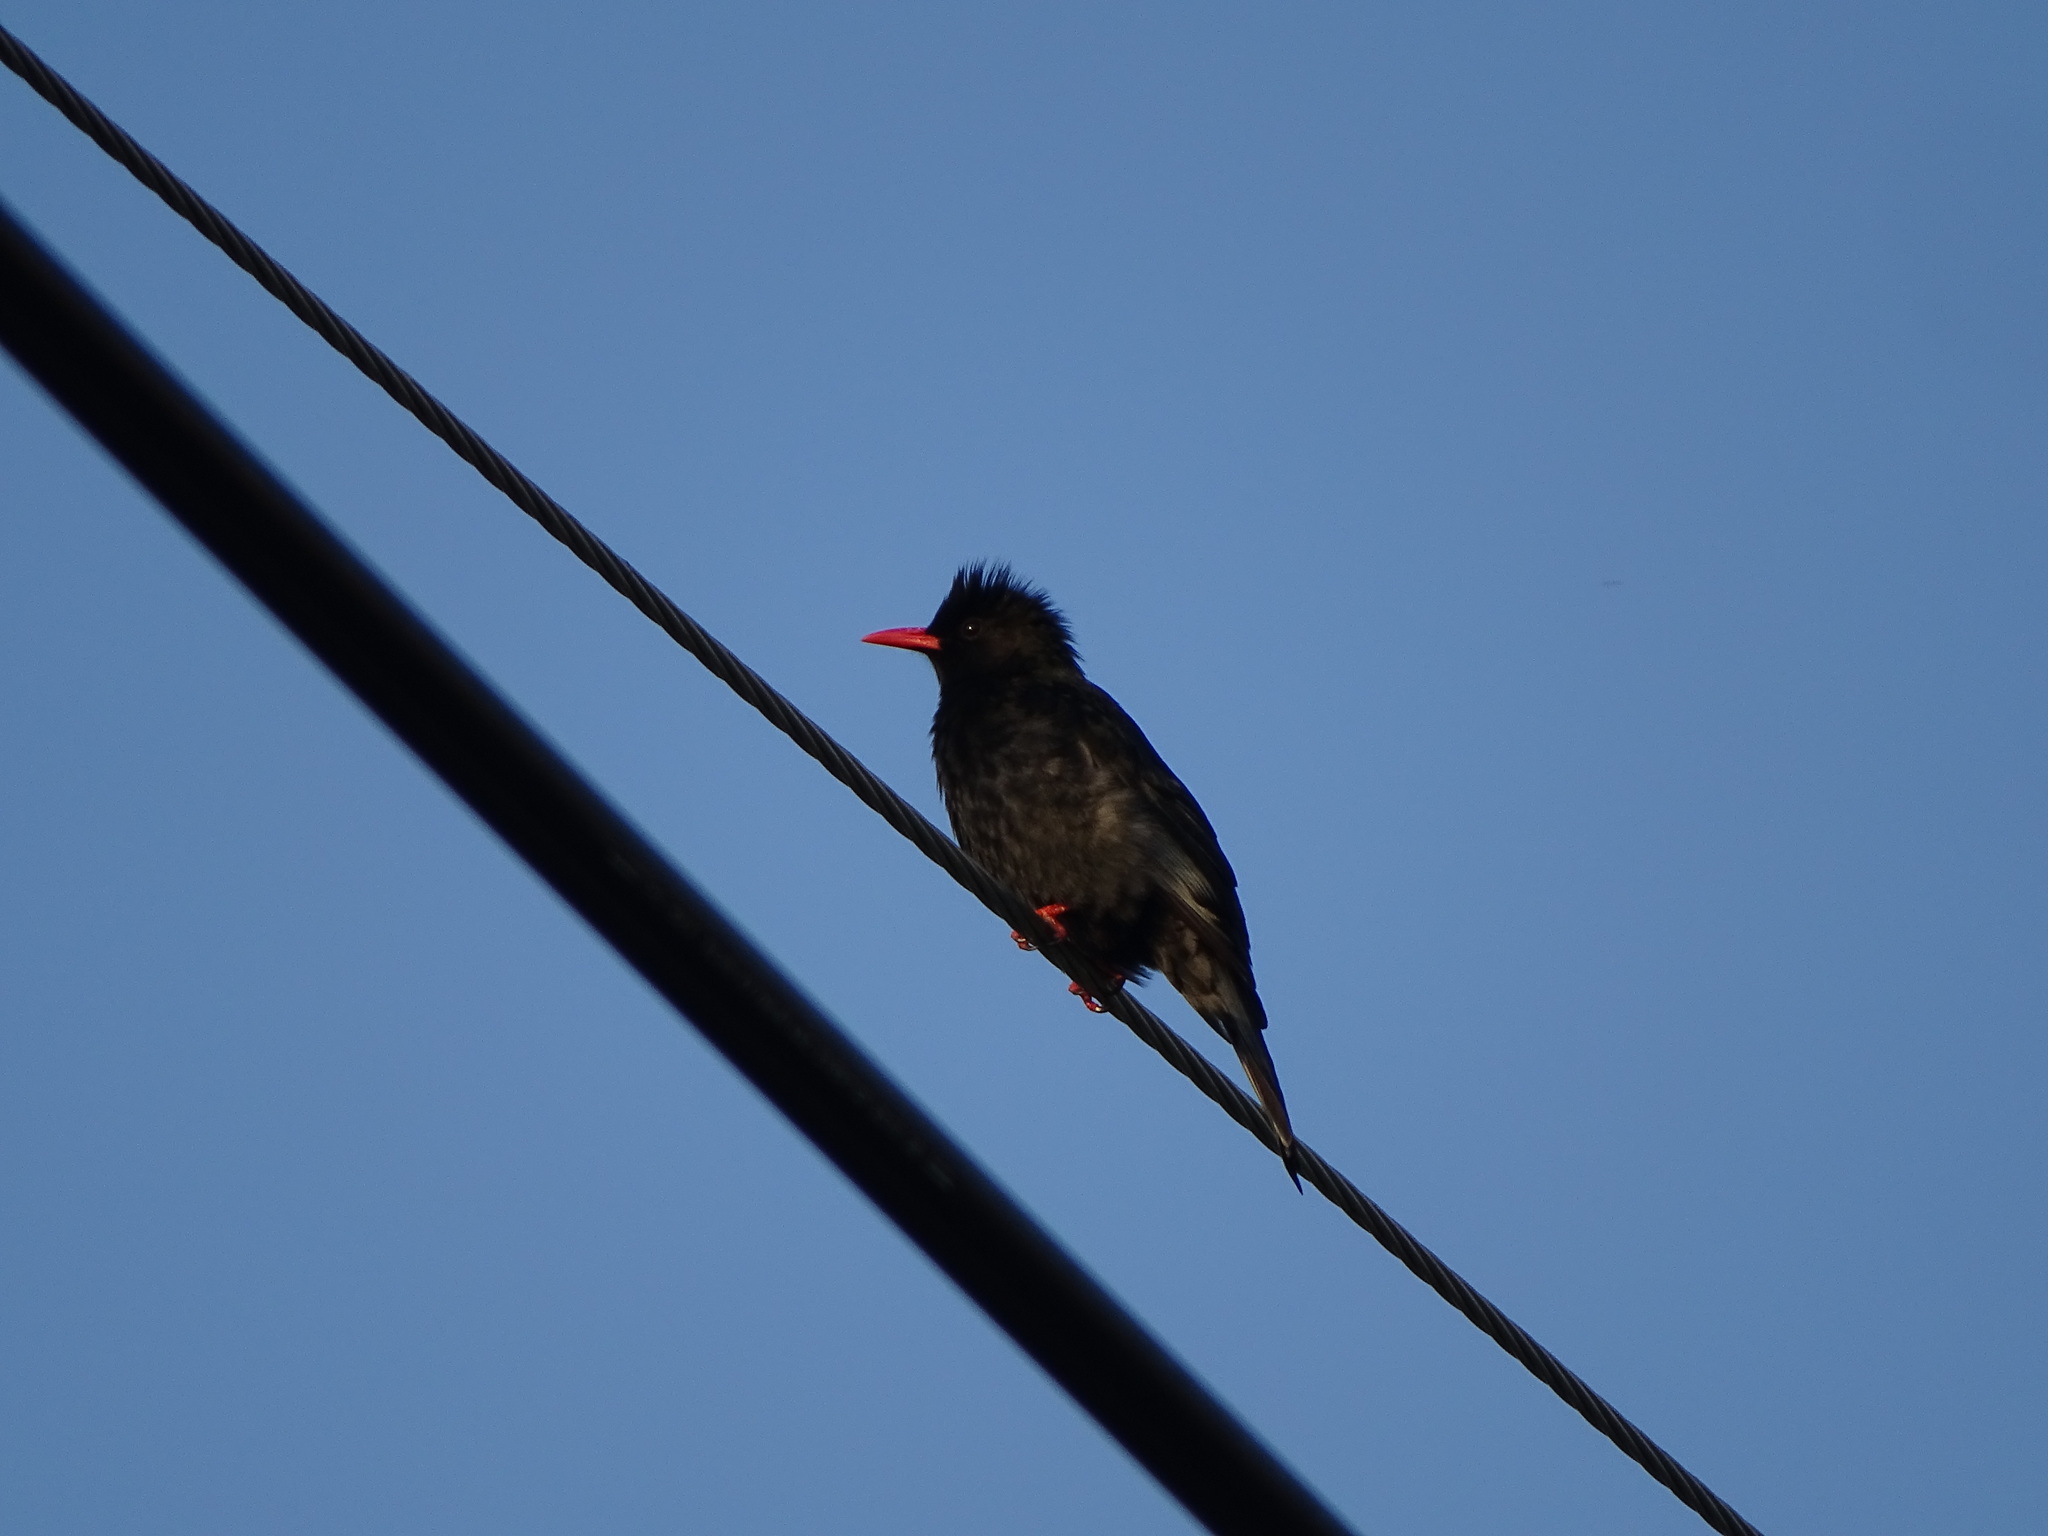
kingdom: Animalia
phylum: Chordata
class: Aves
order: Passeriformes
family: Pycnonotidae
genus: Hypsipetes
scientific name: Hypsipetes leucocephalus
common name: Black bulbul
